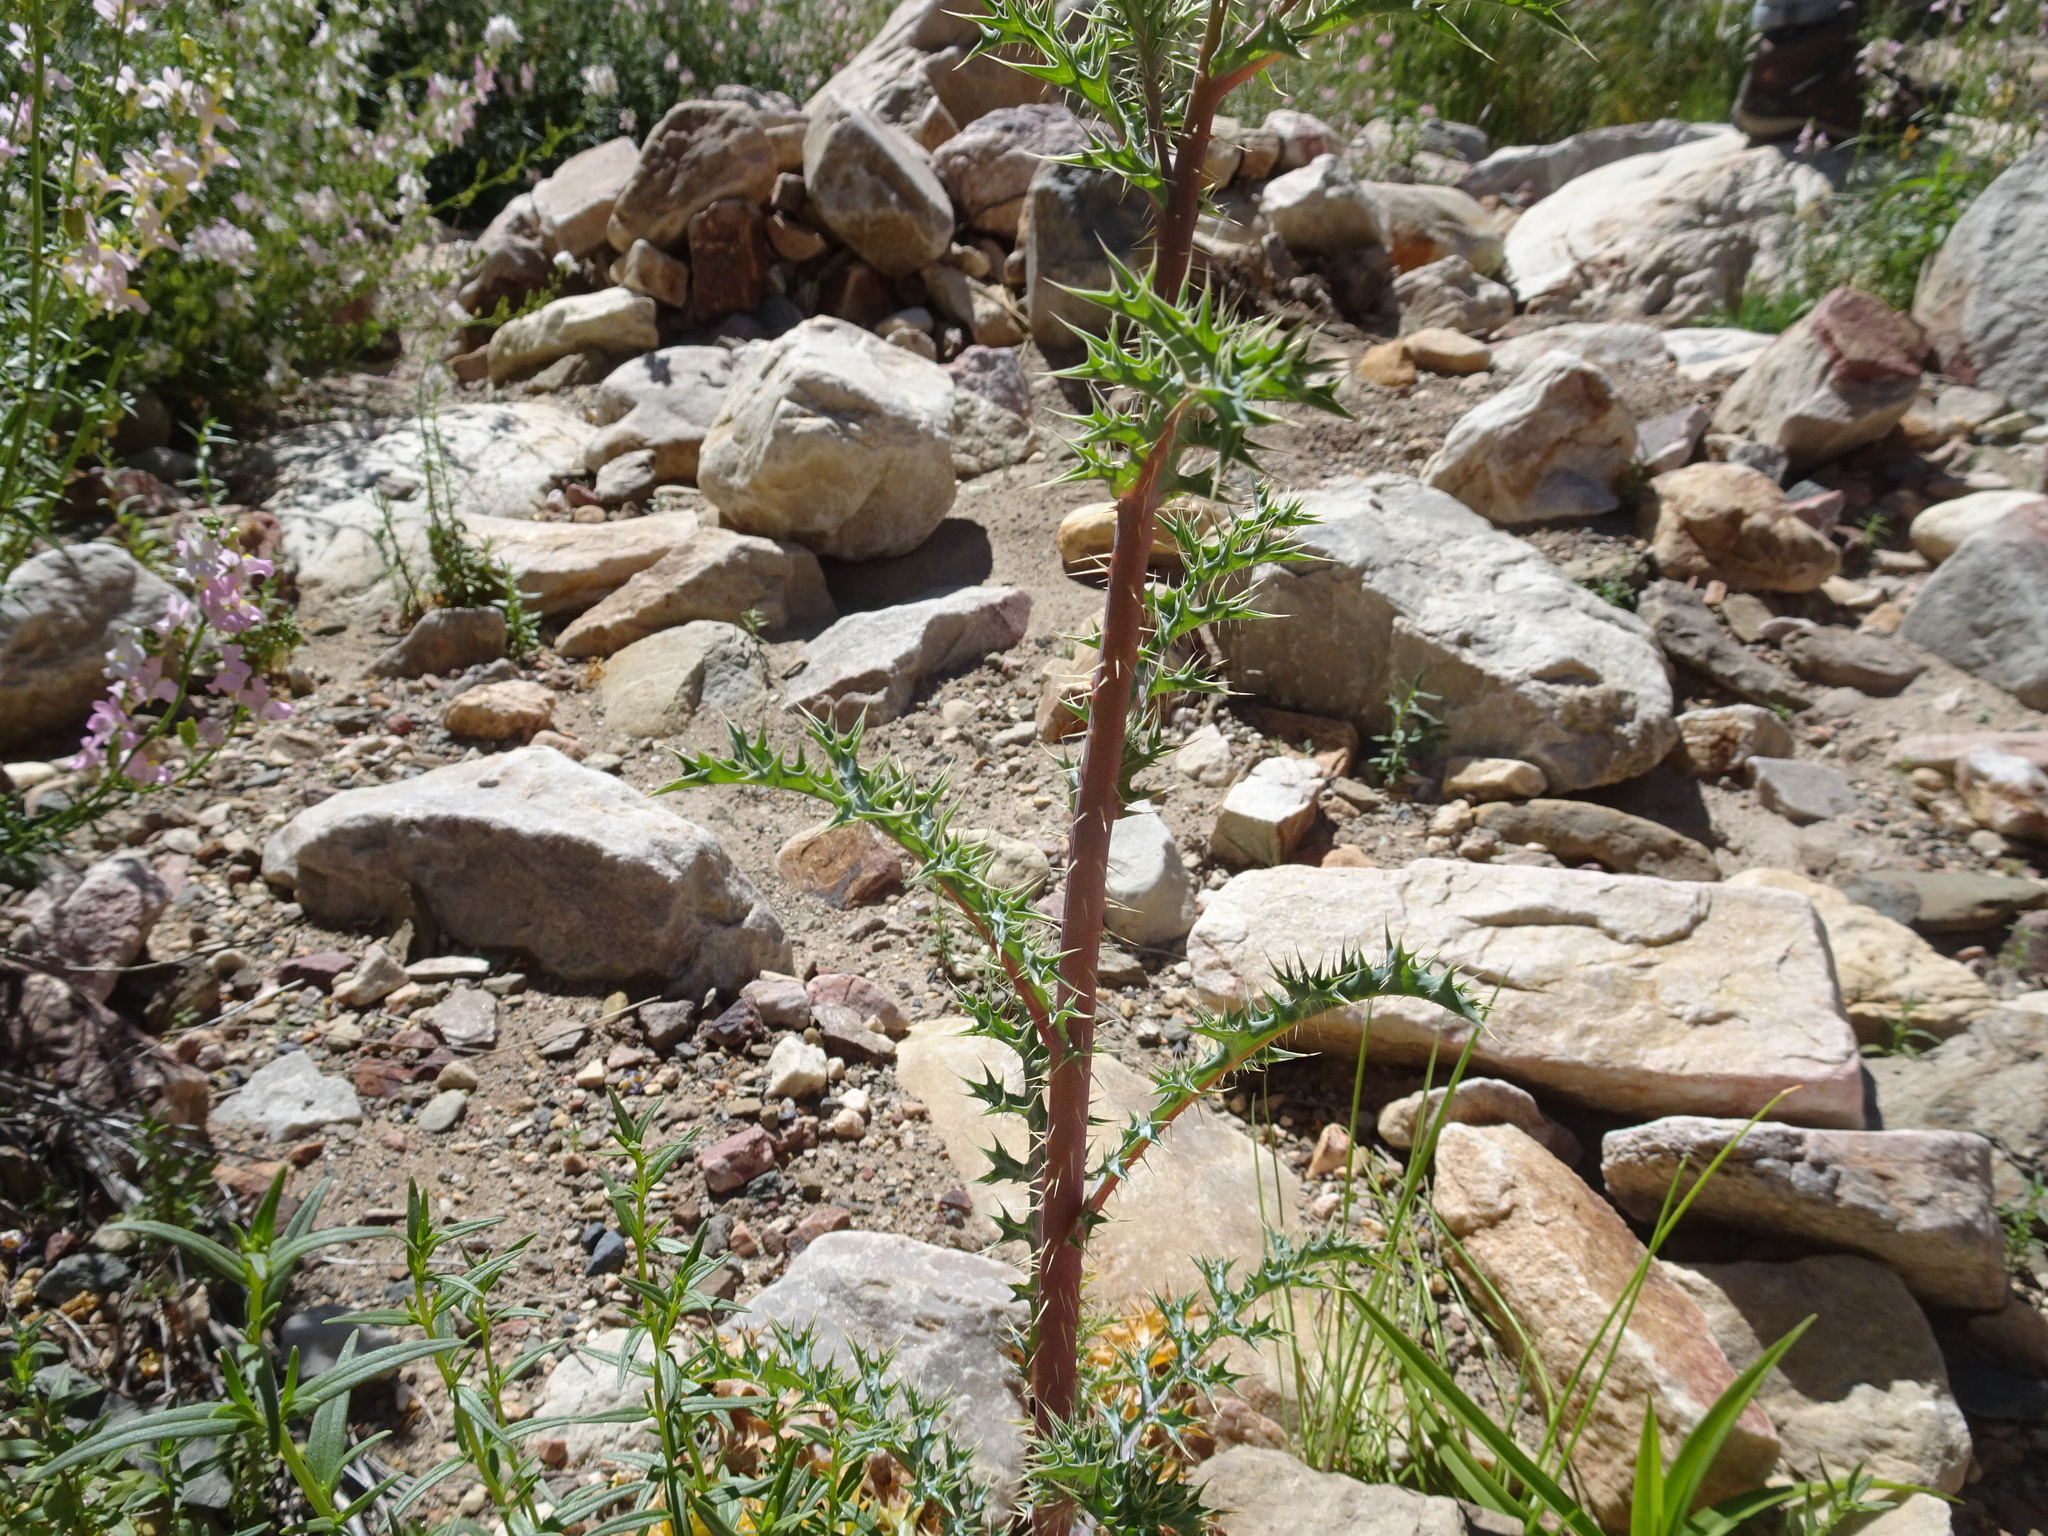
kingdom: Plantae
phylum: Tracheophyta
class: Magnoliopsida
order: Ranunculales
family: Papaveraceae
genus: Argemone
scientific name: Argemone ochroleuca
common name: White-flower mexican-poppy
